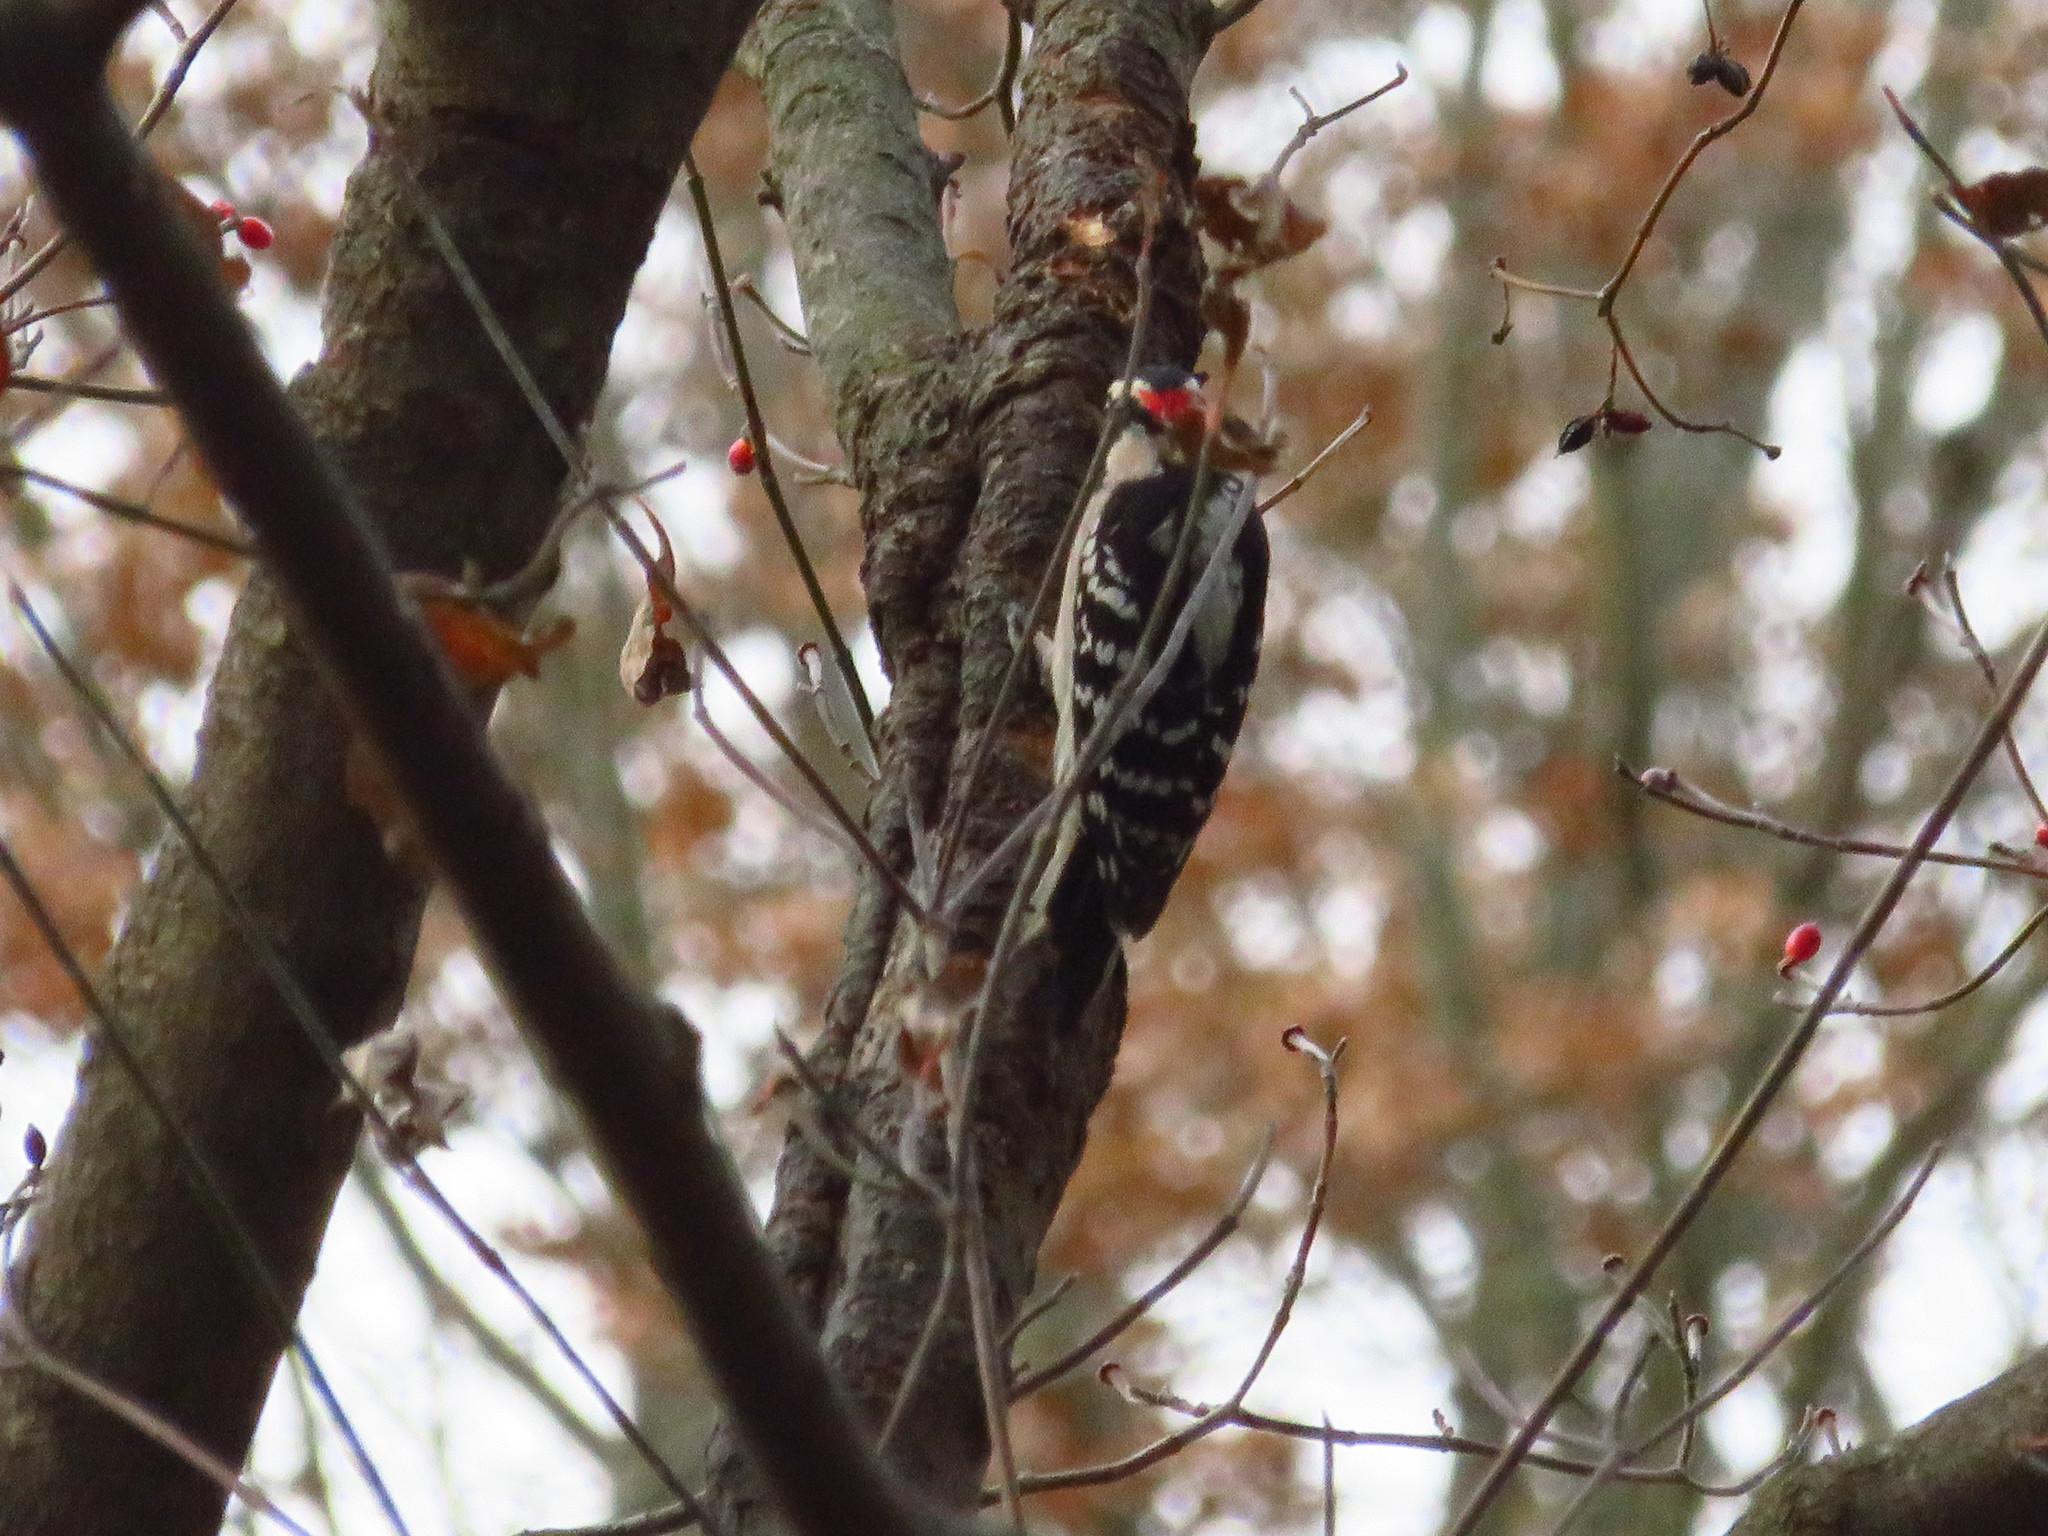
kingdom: Animalia
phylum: Chordata
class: Aves
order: Piciformes
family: Picidae
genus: Dryobates
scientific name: Dryobates pubescens
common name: Downy woodpecker
